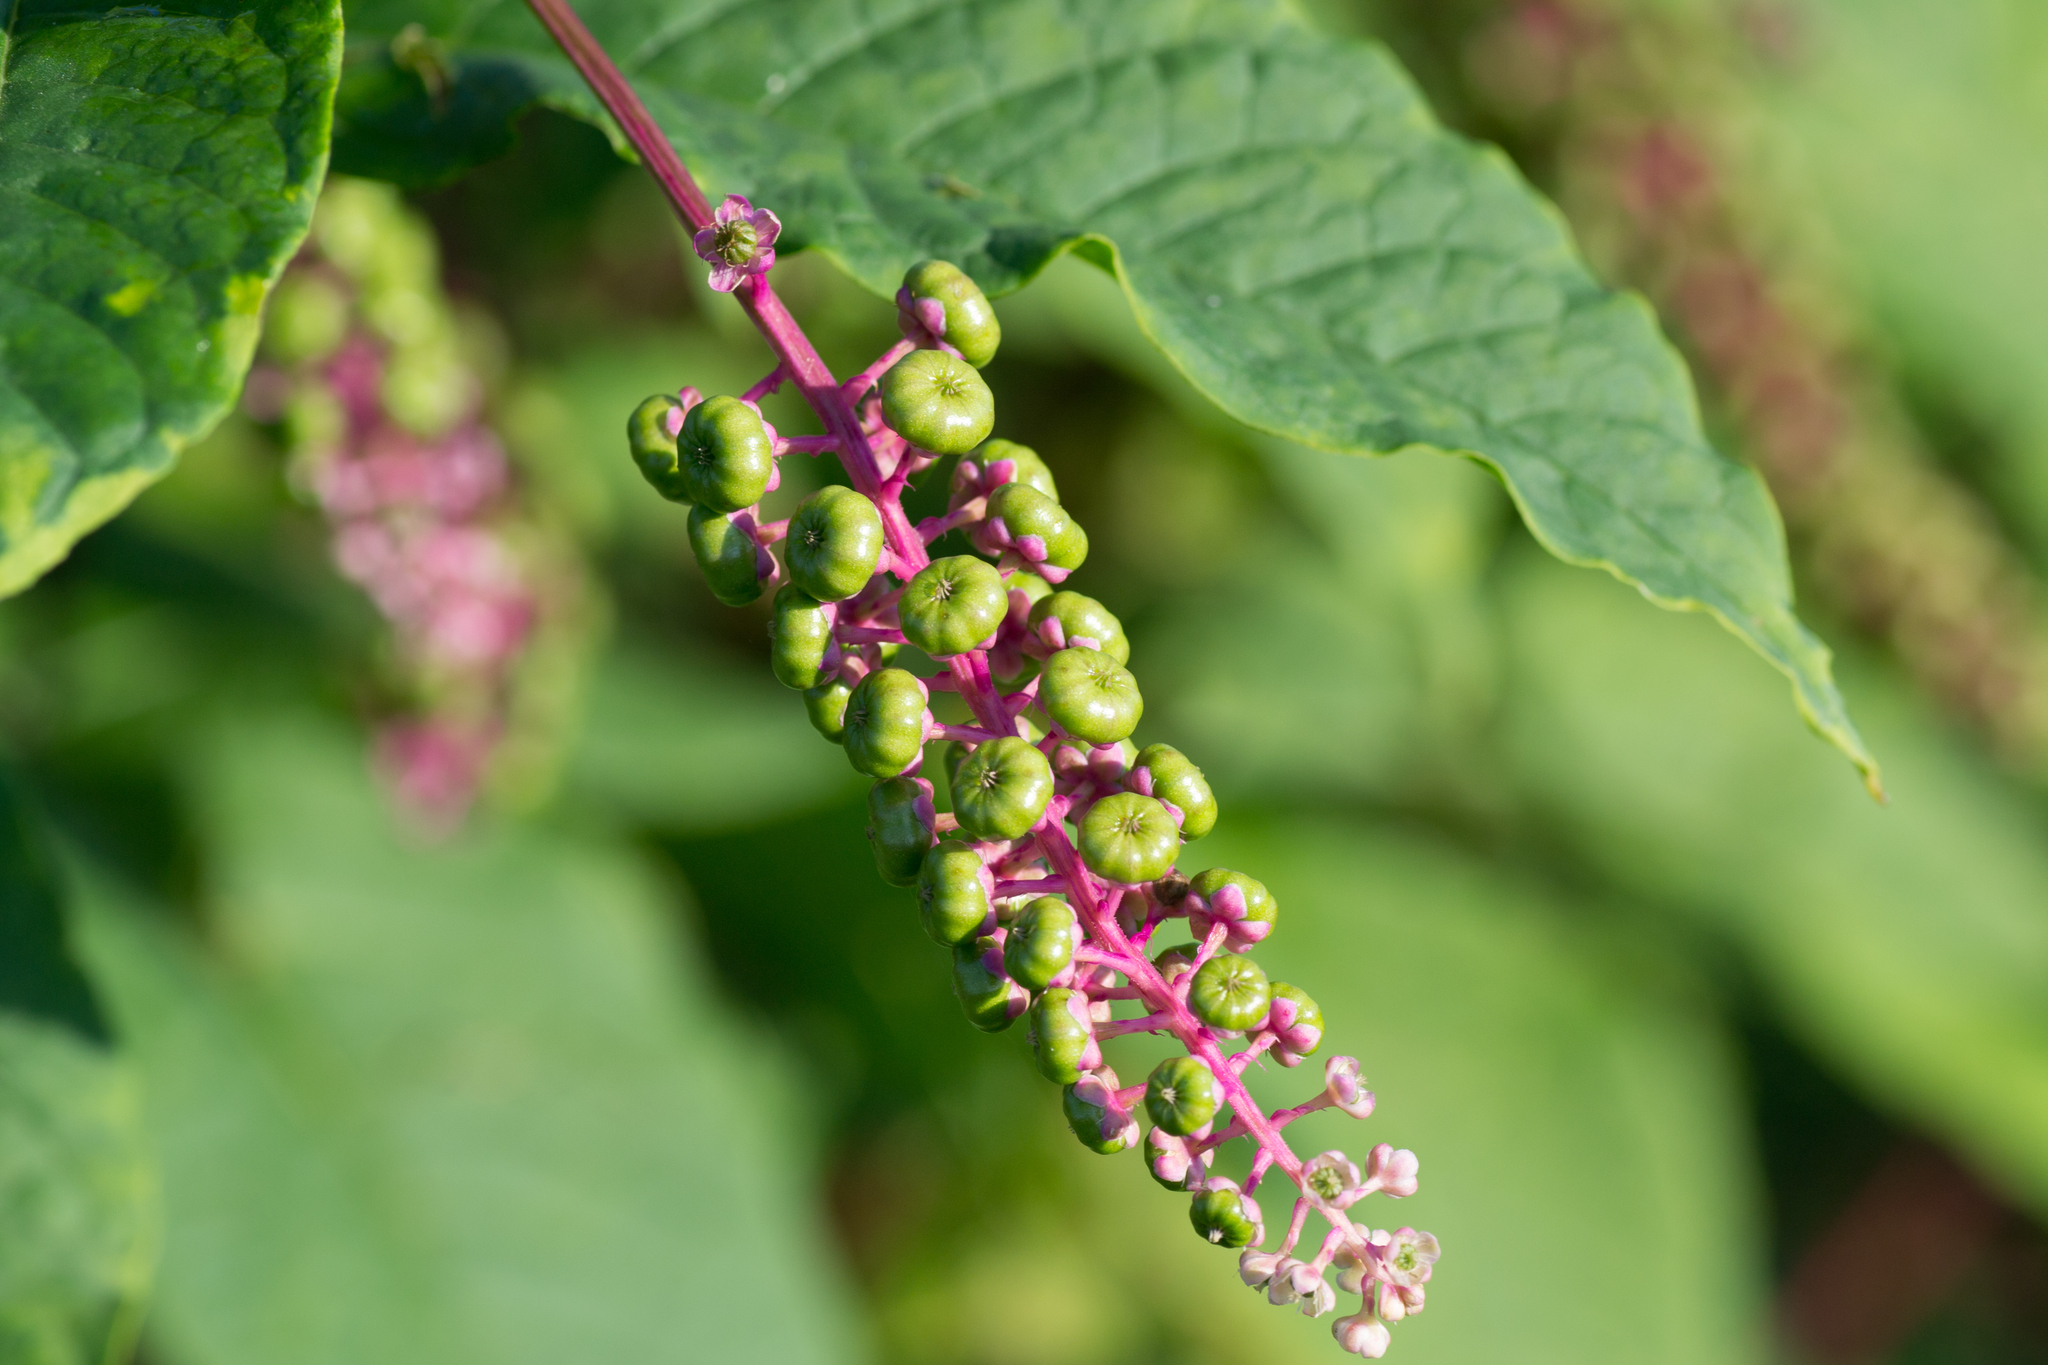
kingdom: Plantae
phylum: Tracheophyta
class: Magnoliopsida
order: Caryophyllales
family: Phytolaccaceae
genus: Phytolacca
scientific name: Phytolacca americana
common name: American pokeweed
